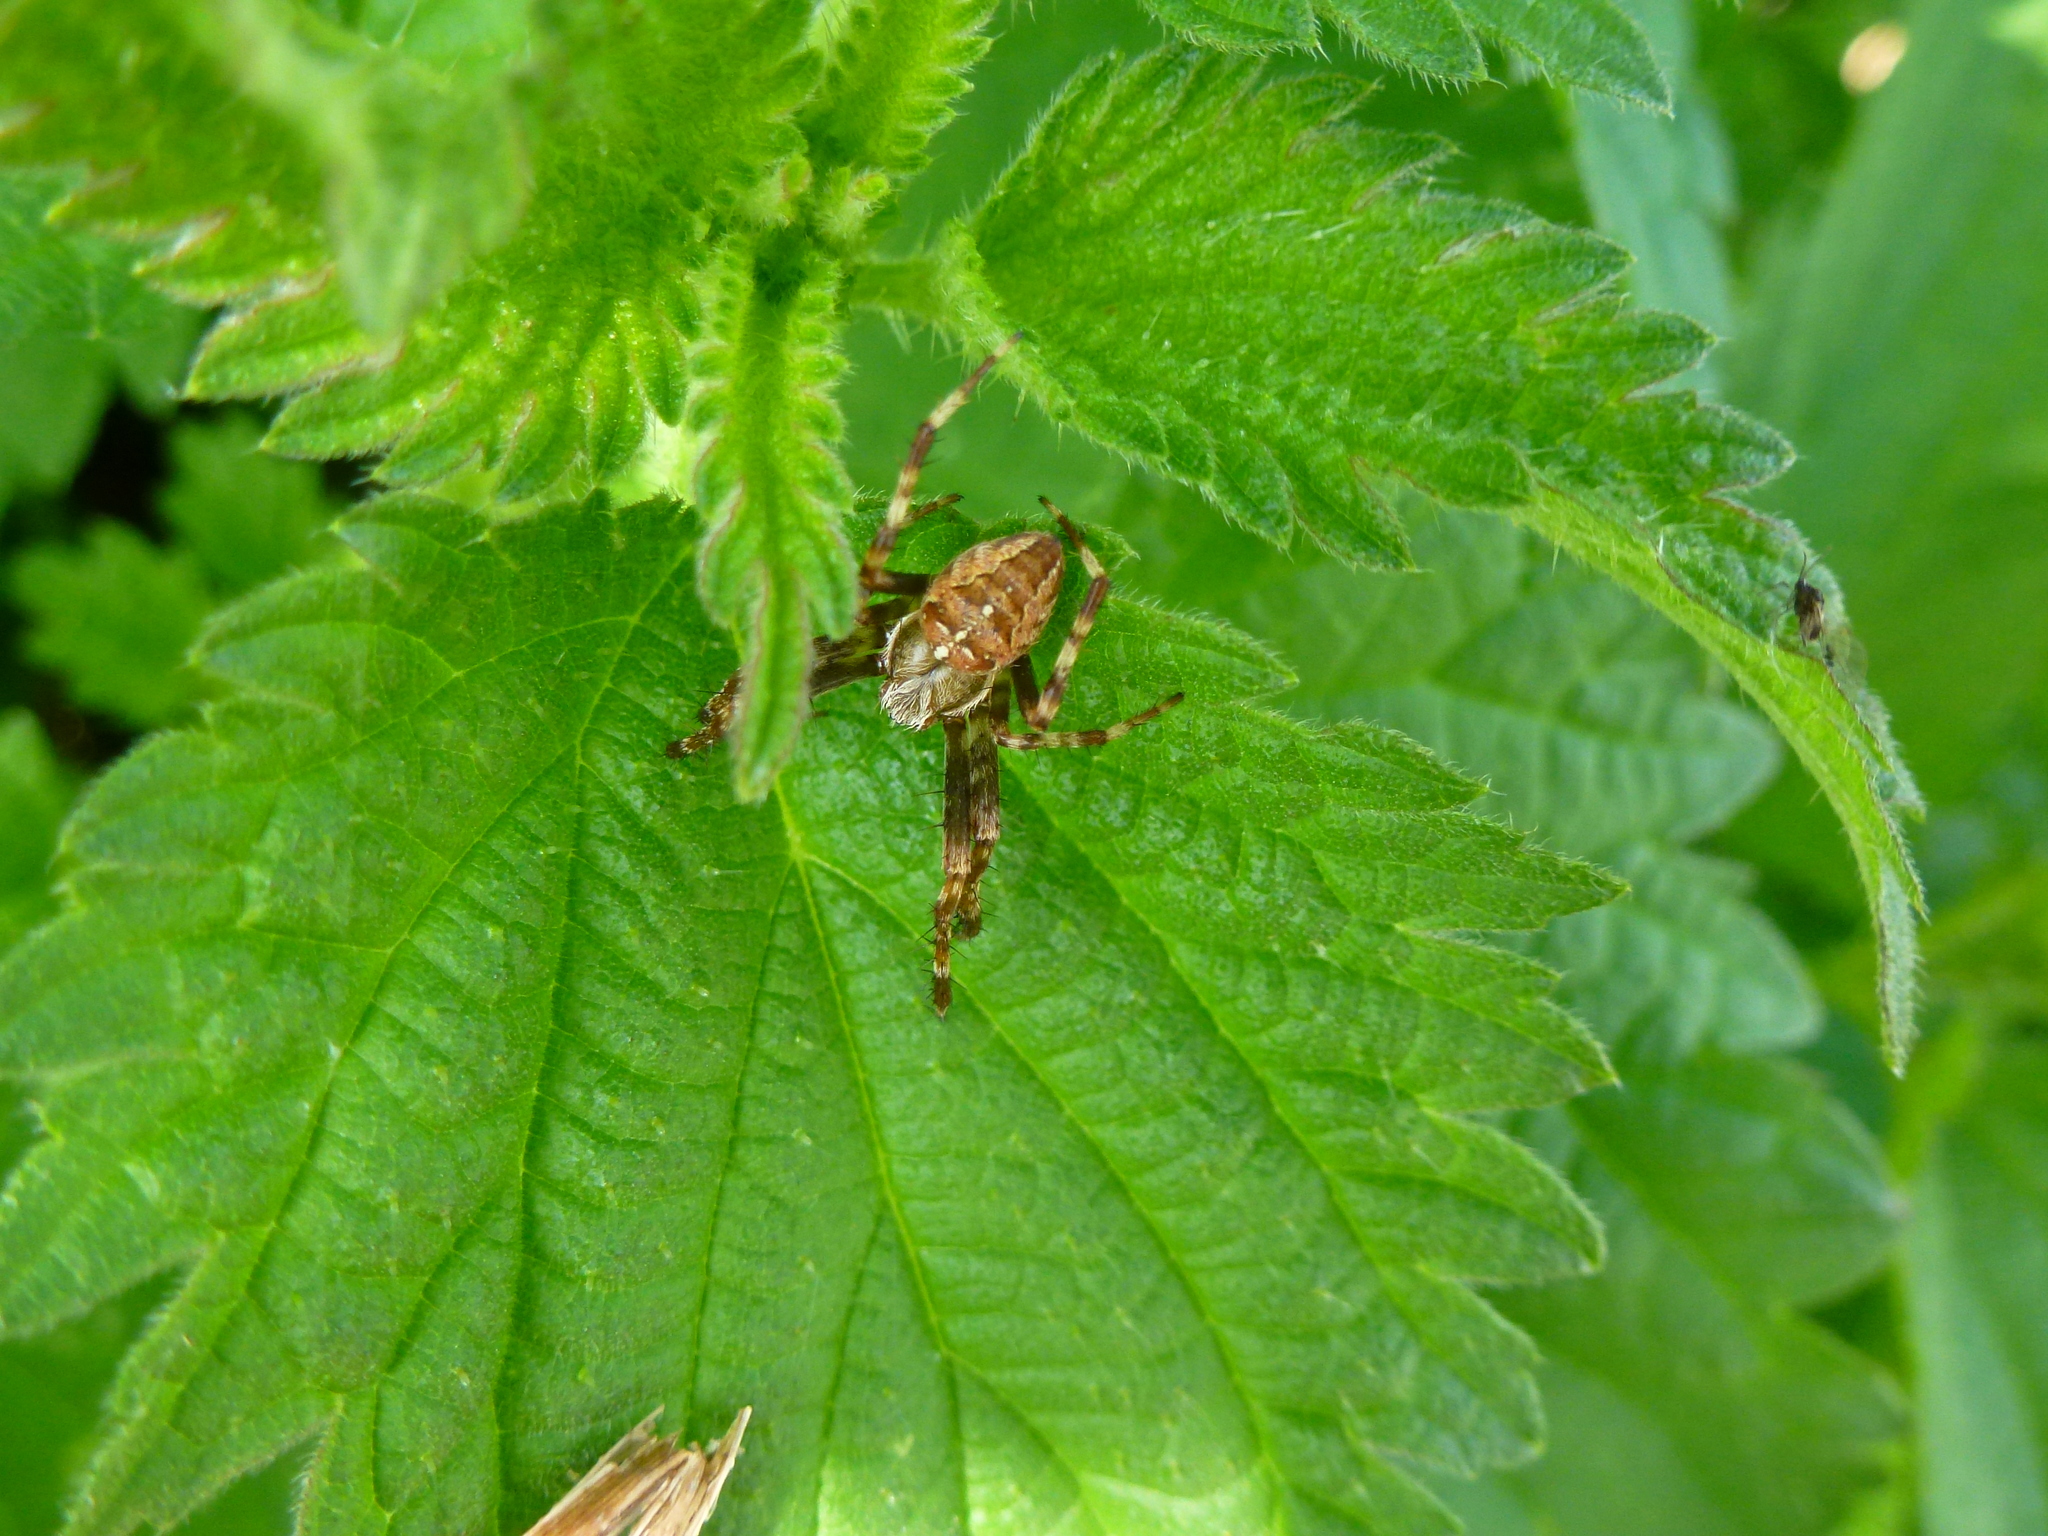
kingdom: Animalia
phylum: Arthropoda
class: Arachnida
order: Araneae
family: Araneidae
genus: Araneus
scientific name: Araneus diadematus
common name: Cross orbweaver
